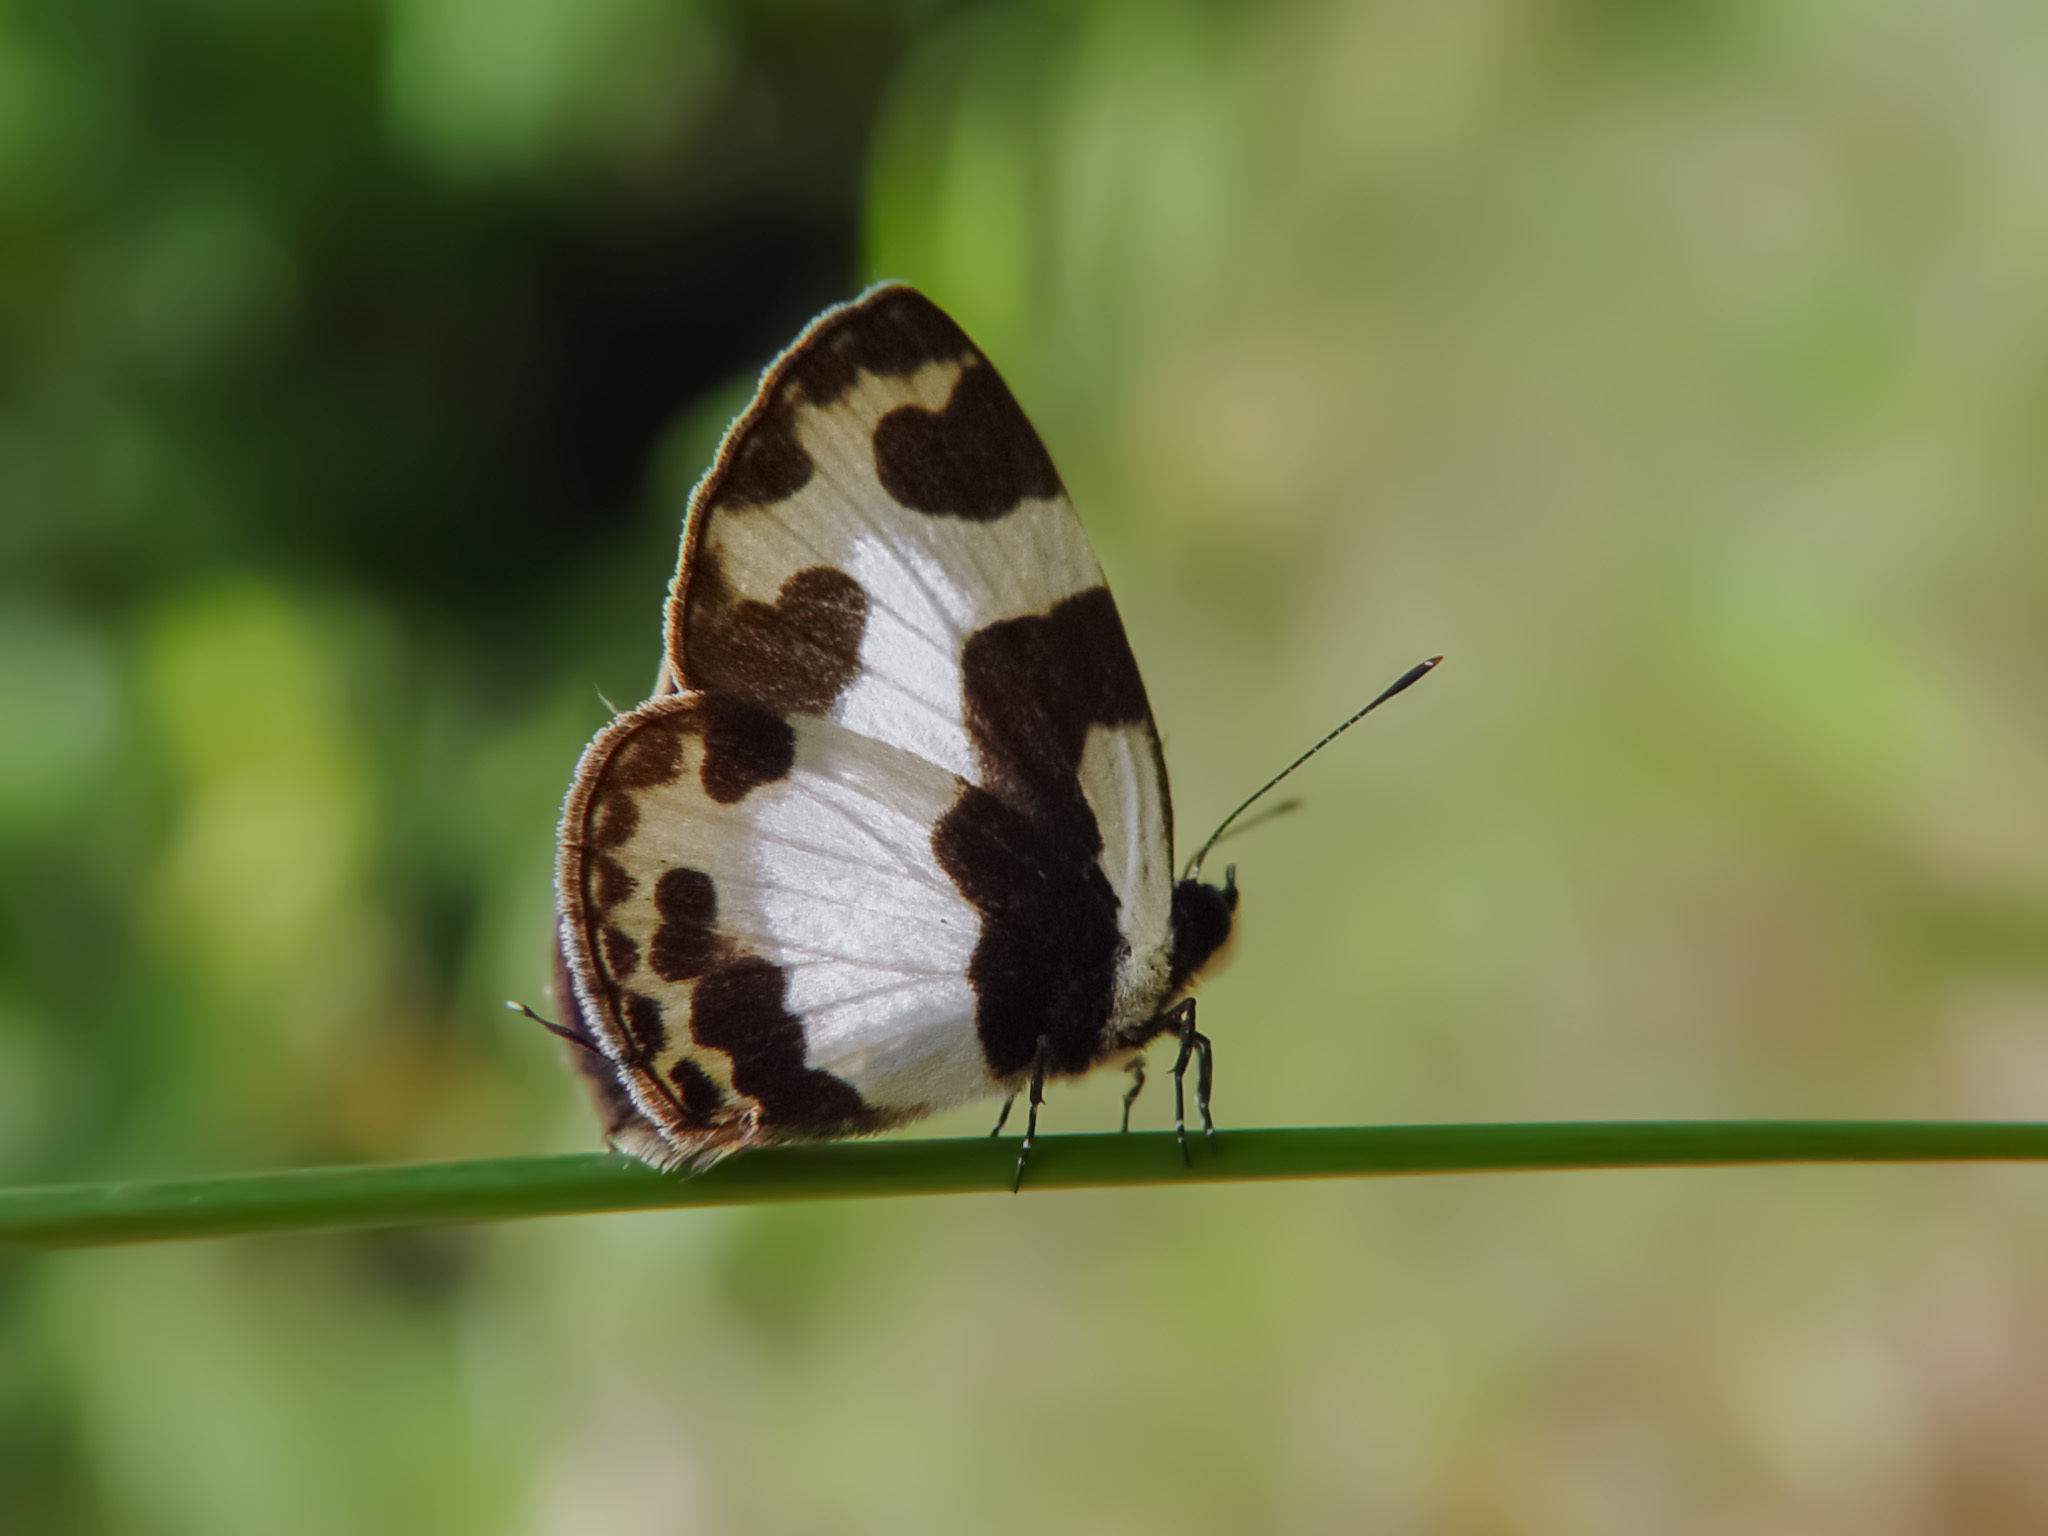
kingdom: Animalia
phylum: Arthropoda
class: Insecta
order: Lepidoptera
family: Lycaenidae
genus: Caleta
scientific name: Caleta elna
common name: Elbowed pierrot
